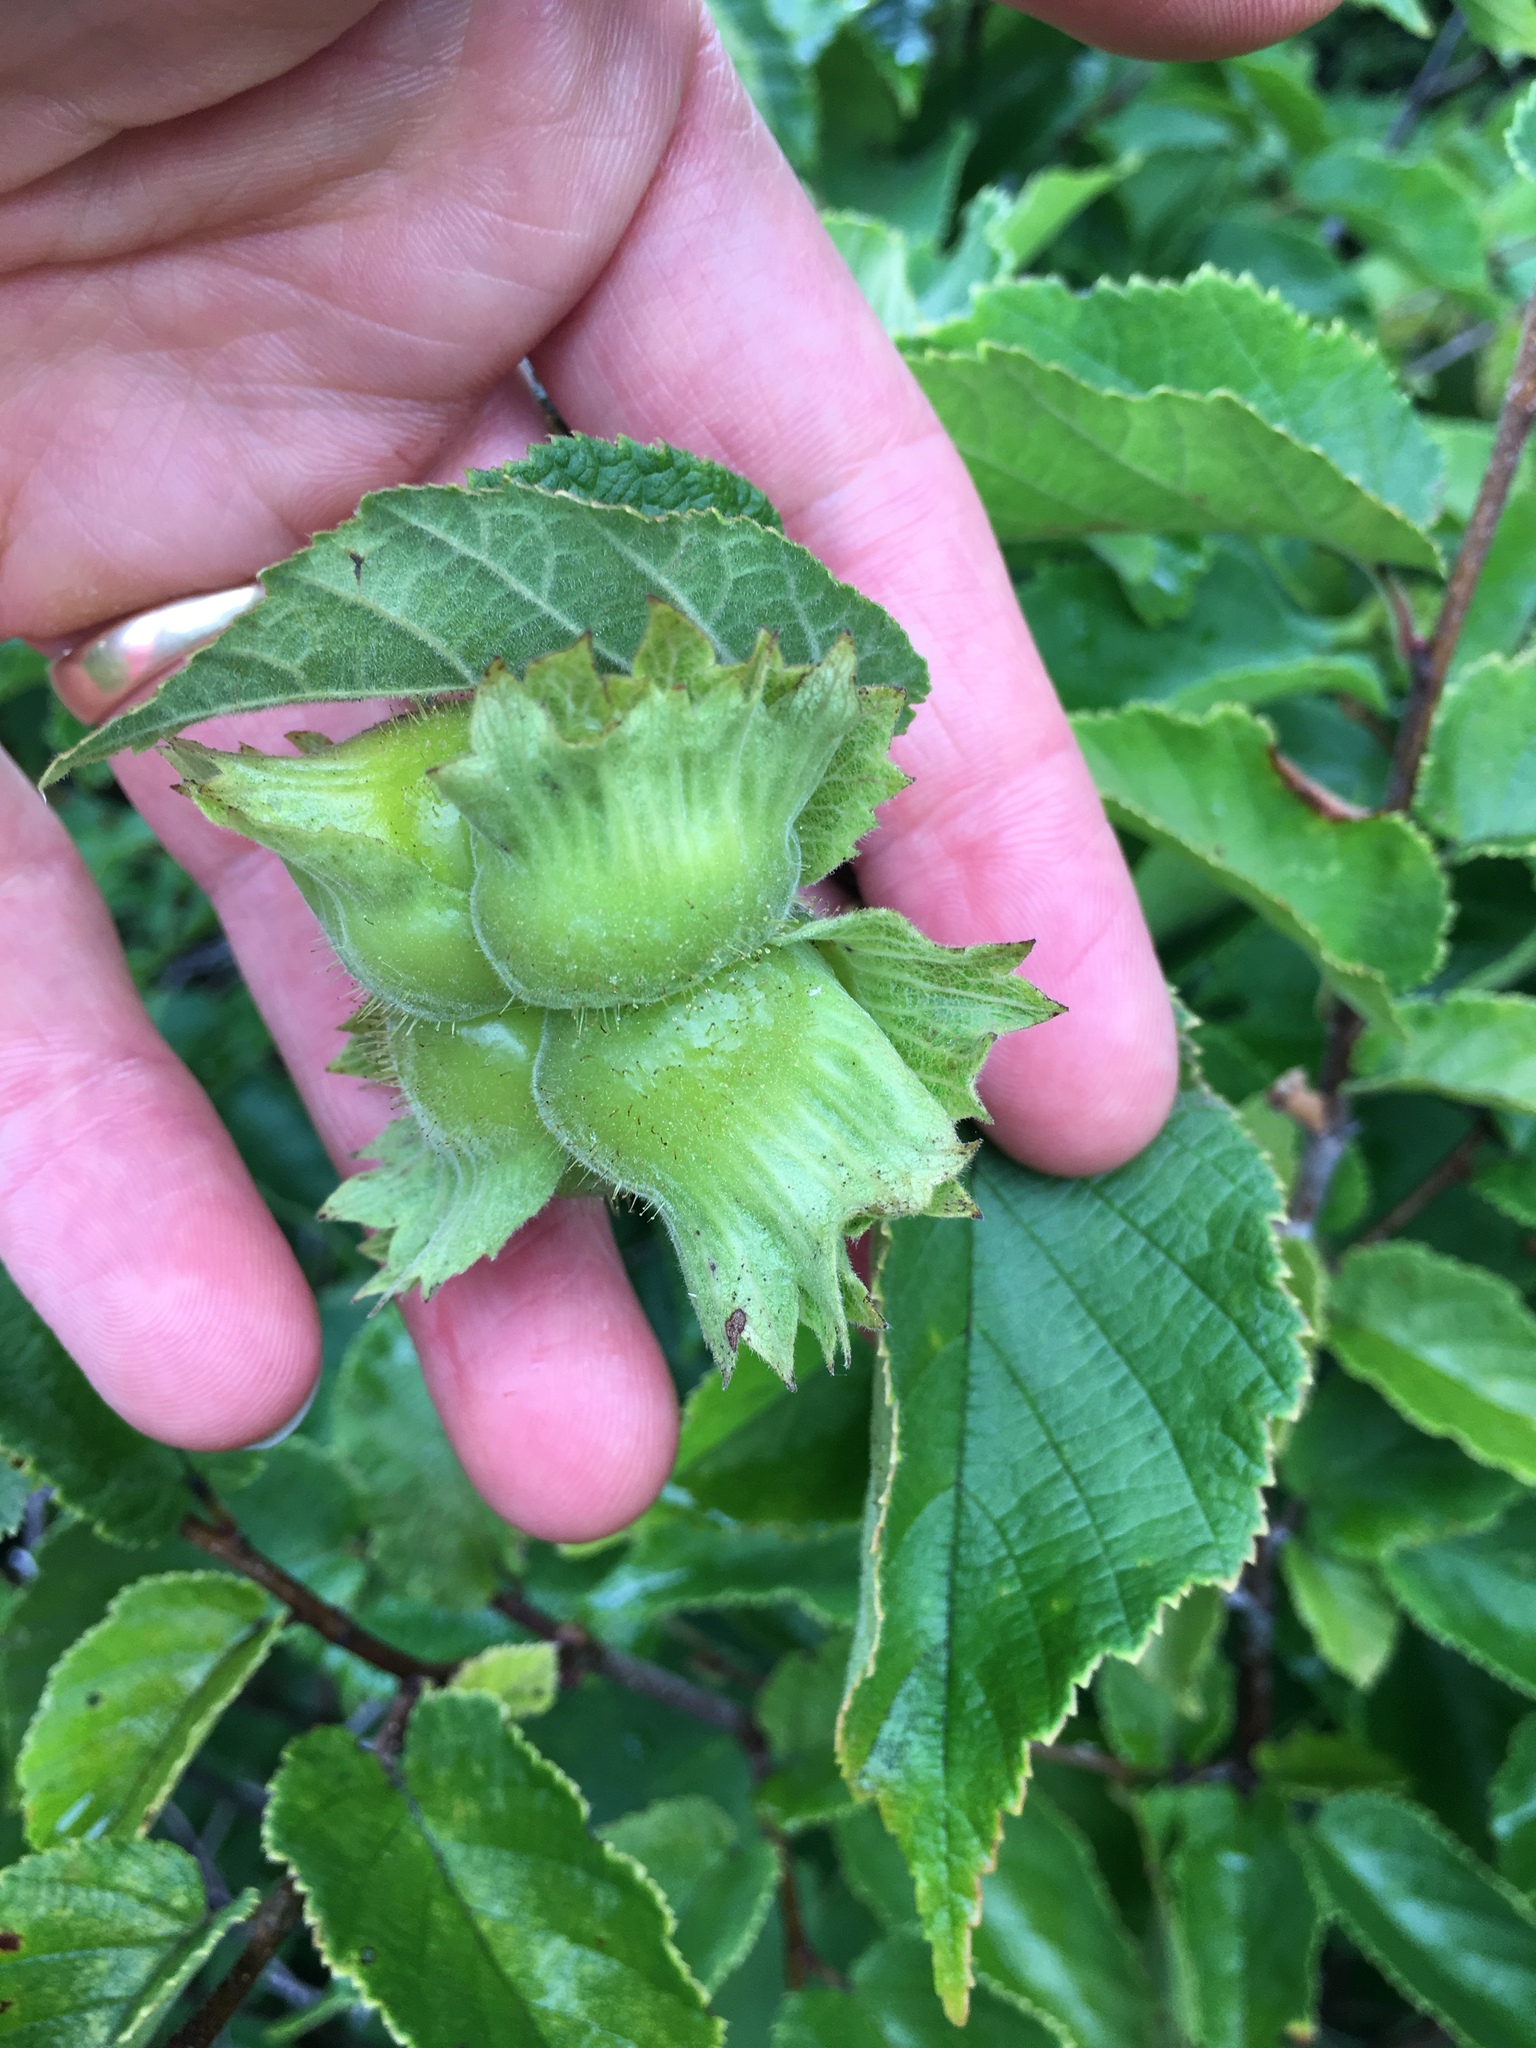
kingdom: Plantae
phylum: Tracheophyta
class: Magnoliopsida
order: Fagales
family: Betulaceae
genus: Corylus
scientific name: Corylus americana
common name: American hazel
